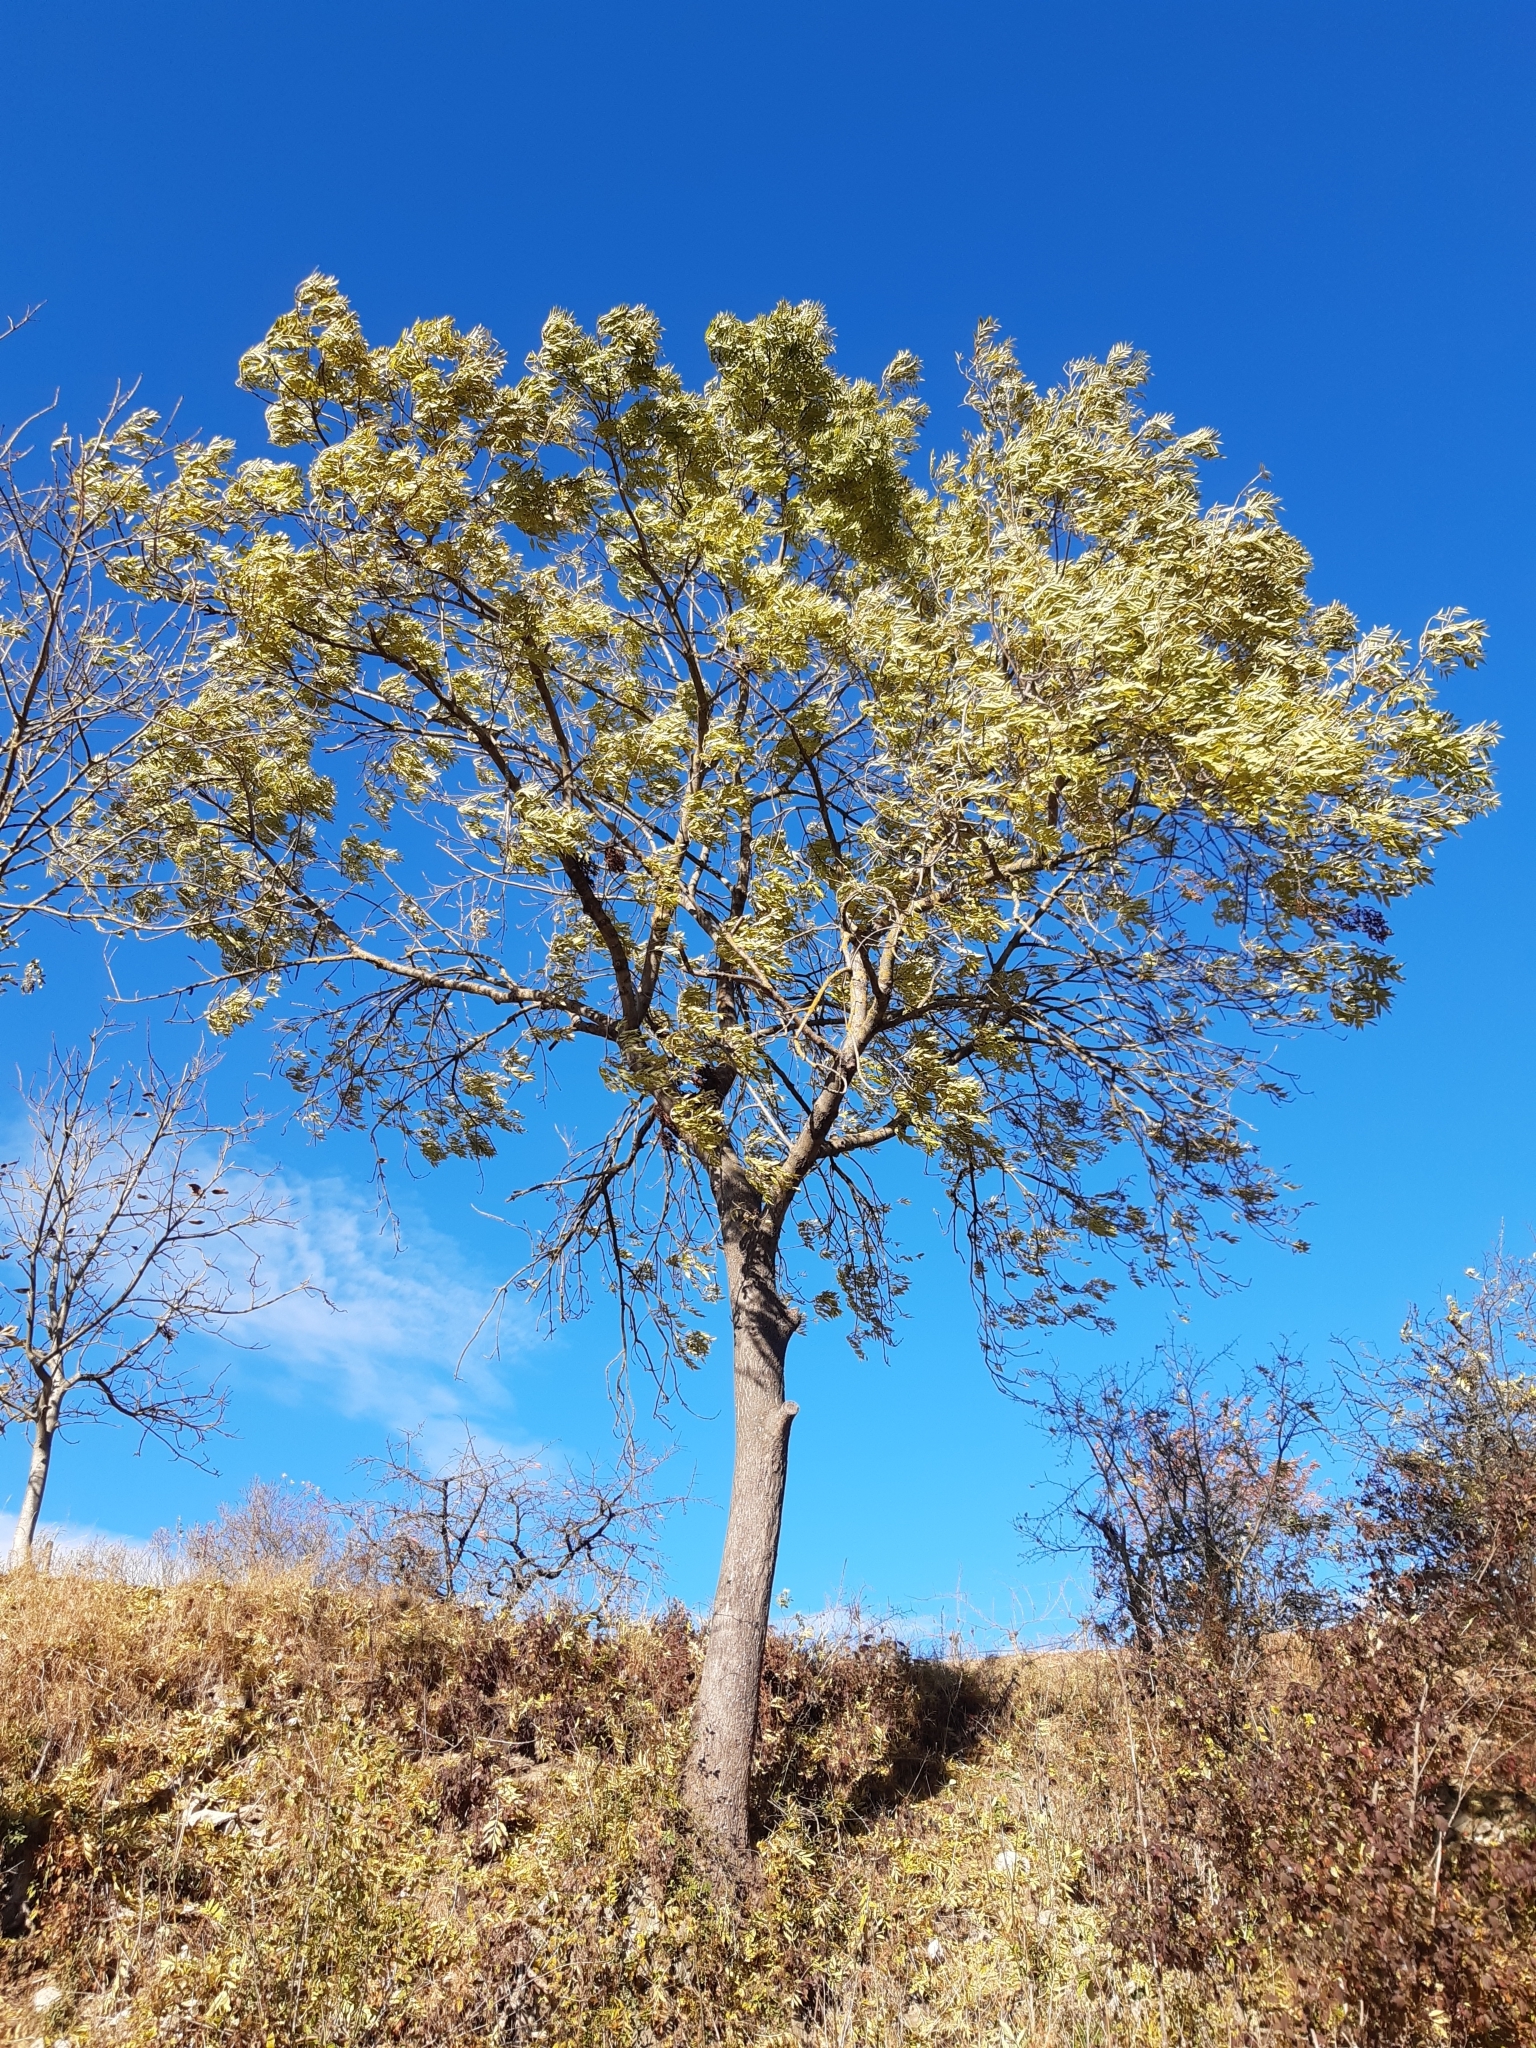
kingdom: Plantae
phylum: Tracheophyta
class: Magnoliopsida
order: Lamiales
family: Oleaceae
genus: Fraxinus
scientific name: Fraxinus excelsior
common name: European ash
